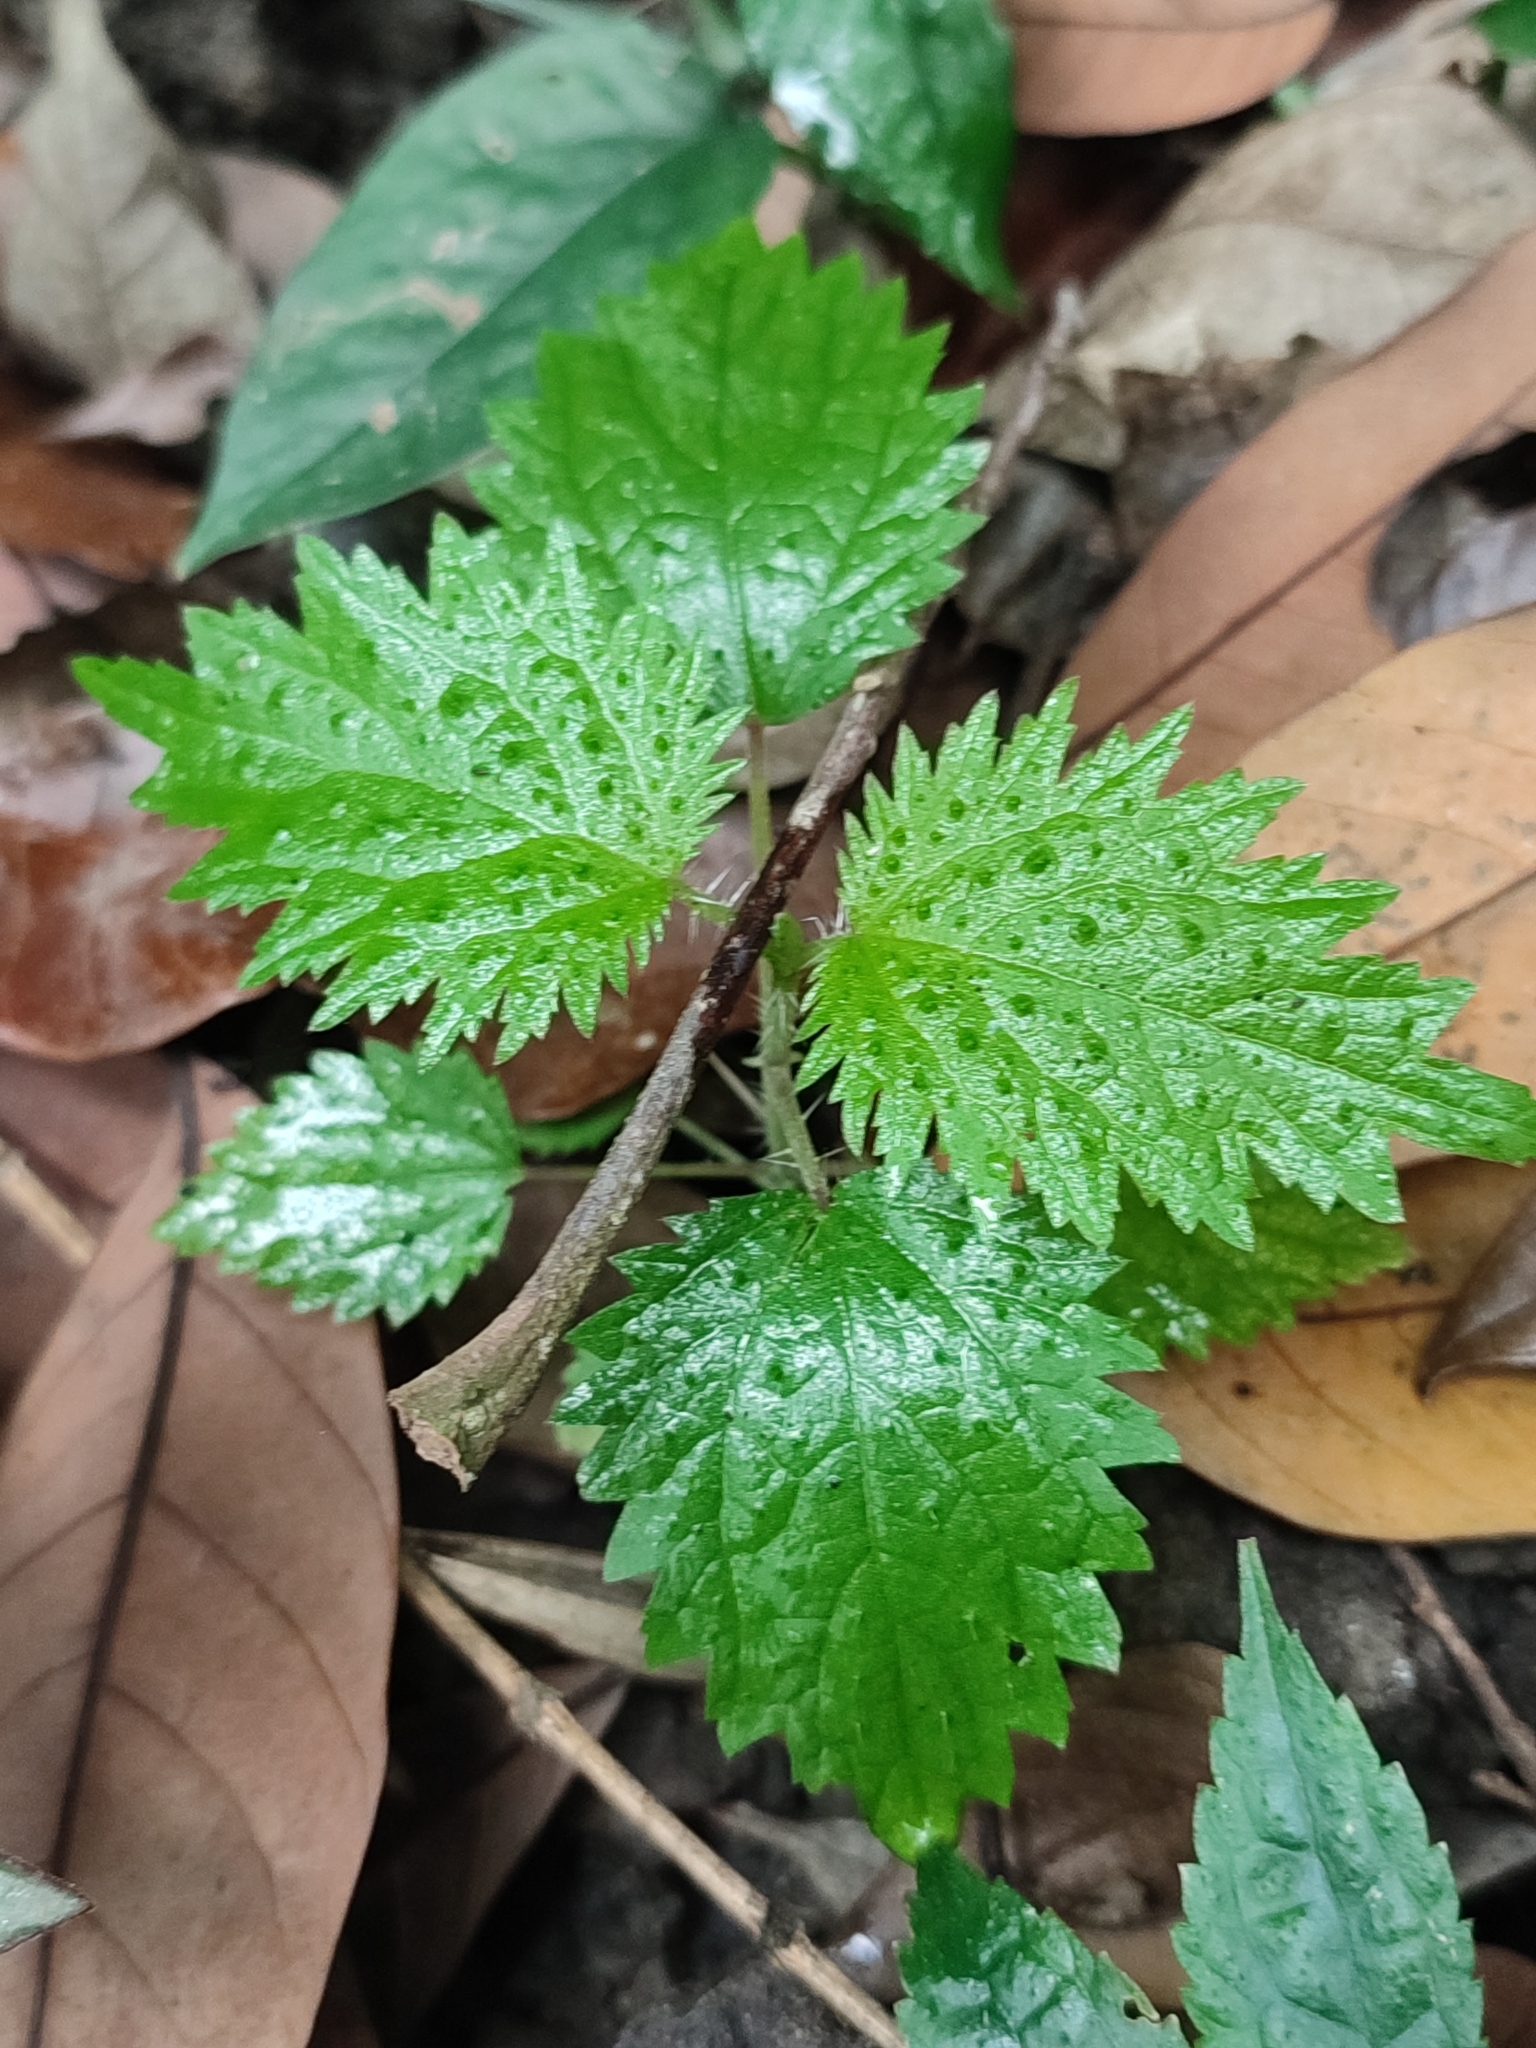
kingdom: Plantae
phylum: Tracheophyta
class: Magnoliopsida
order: Rosales
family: Urticaceae
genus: Urtica
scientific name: Urtica thunbergiana
